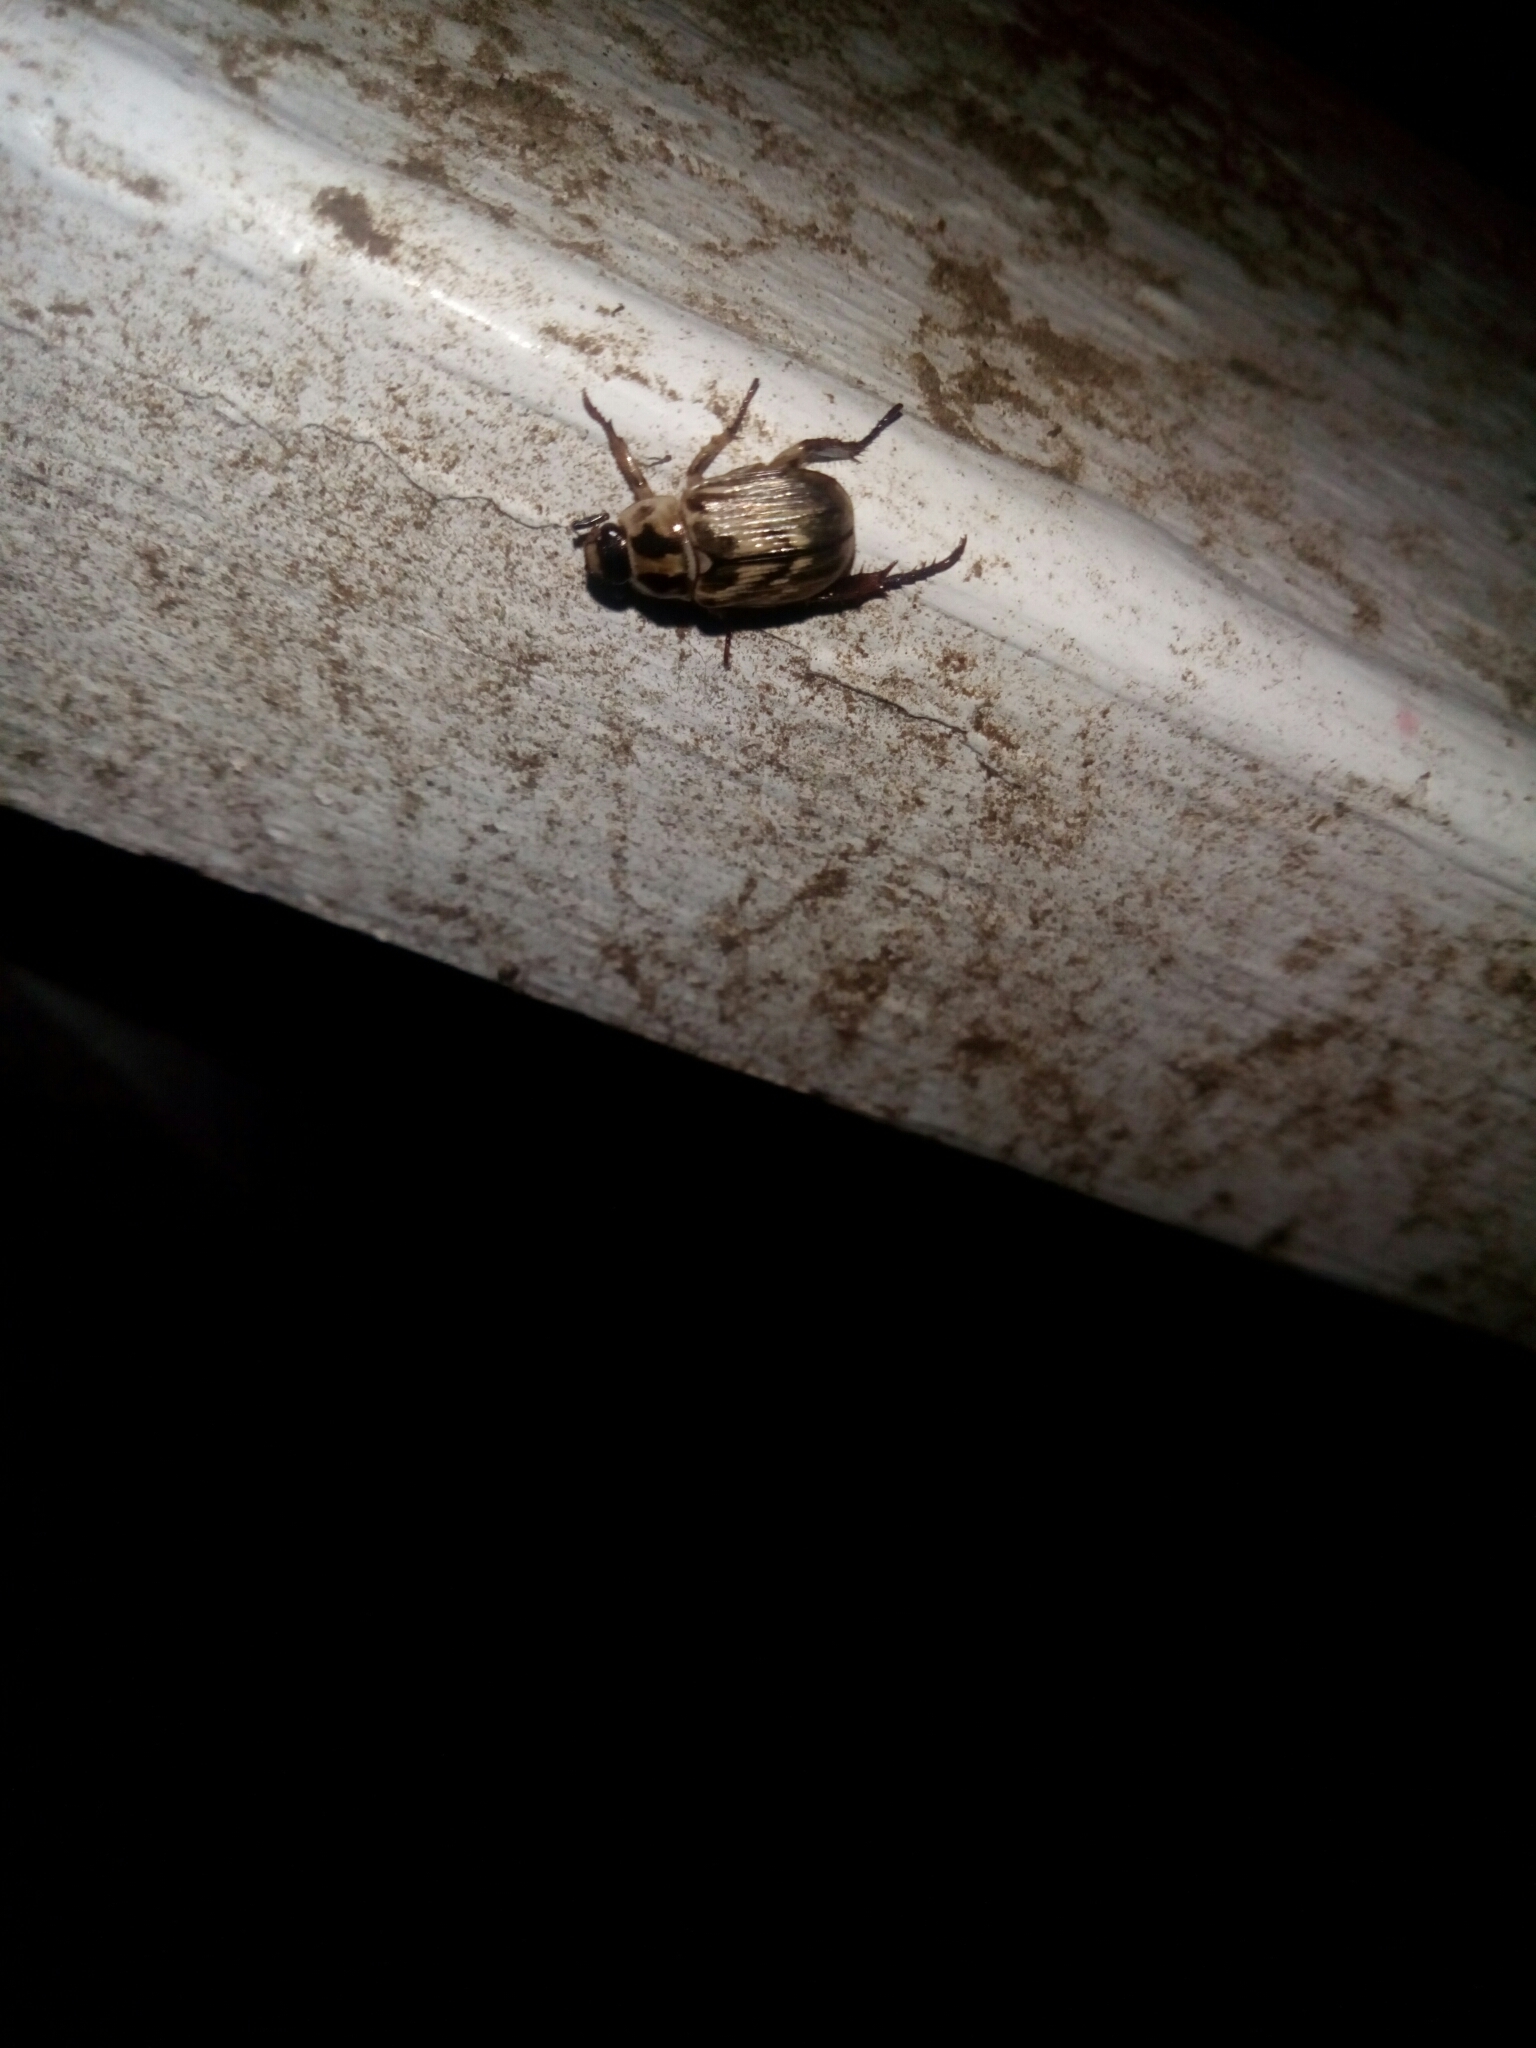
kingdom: Animalia
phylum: Arthropoda
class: Insecta
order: Coleoptera
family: Scarabaeidae
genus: Exomala
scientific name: Exomala orientalis
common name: Oriental beetle
